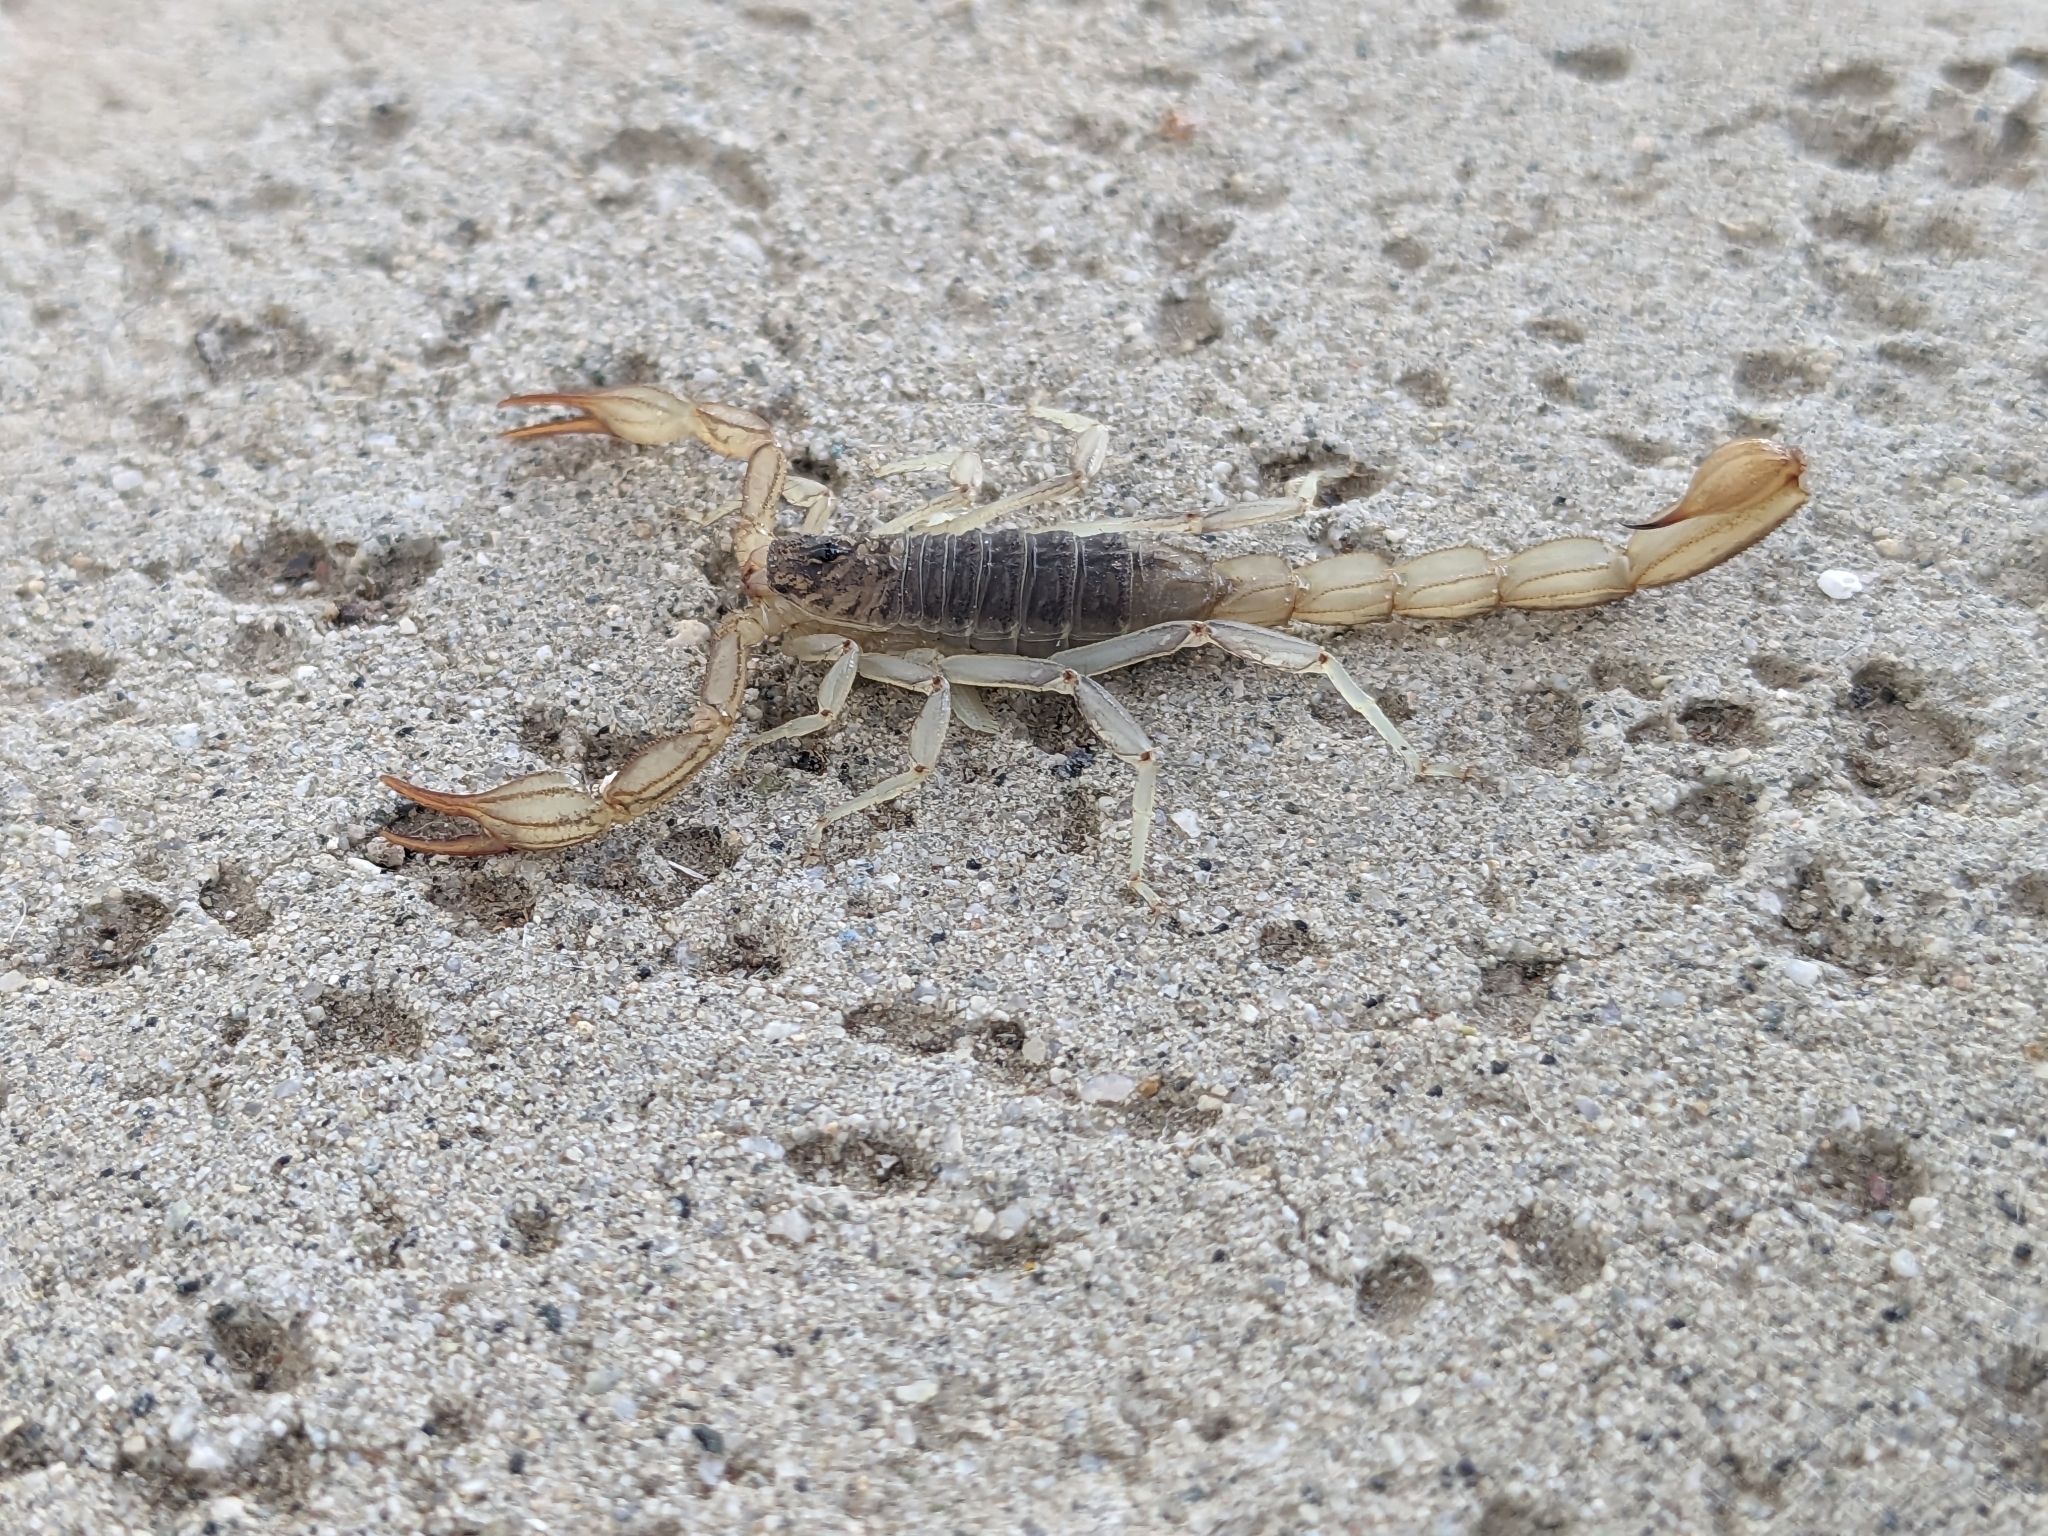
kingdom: Animalia
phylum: Arthropoda
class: Arachnida
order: Scorpiones
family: Vaejovidae
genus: Paruroctonus
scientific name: Paruroctonus silvestrii
